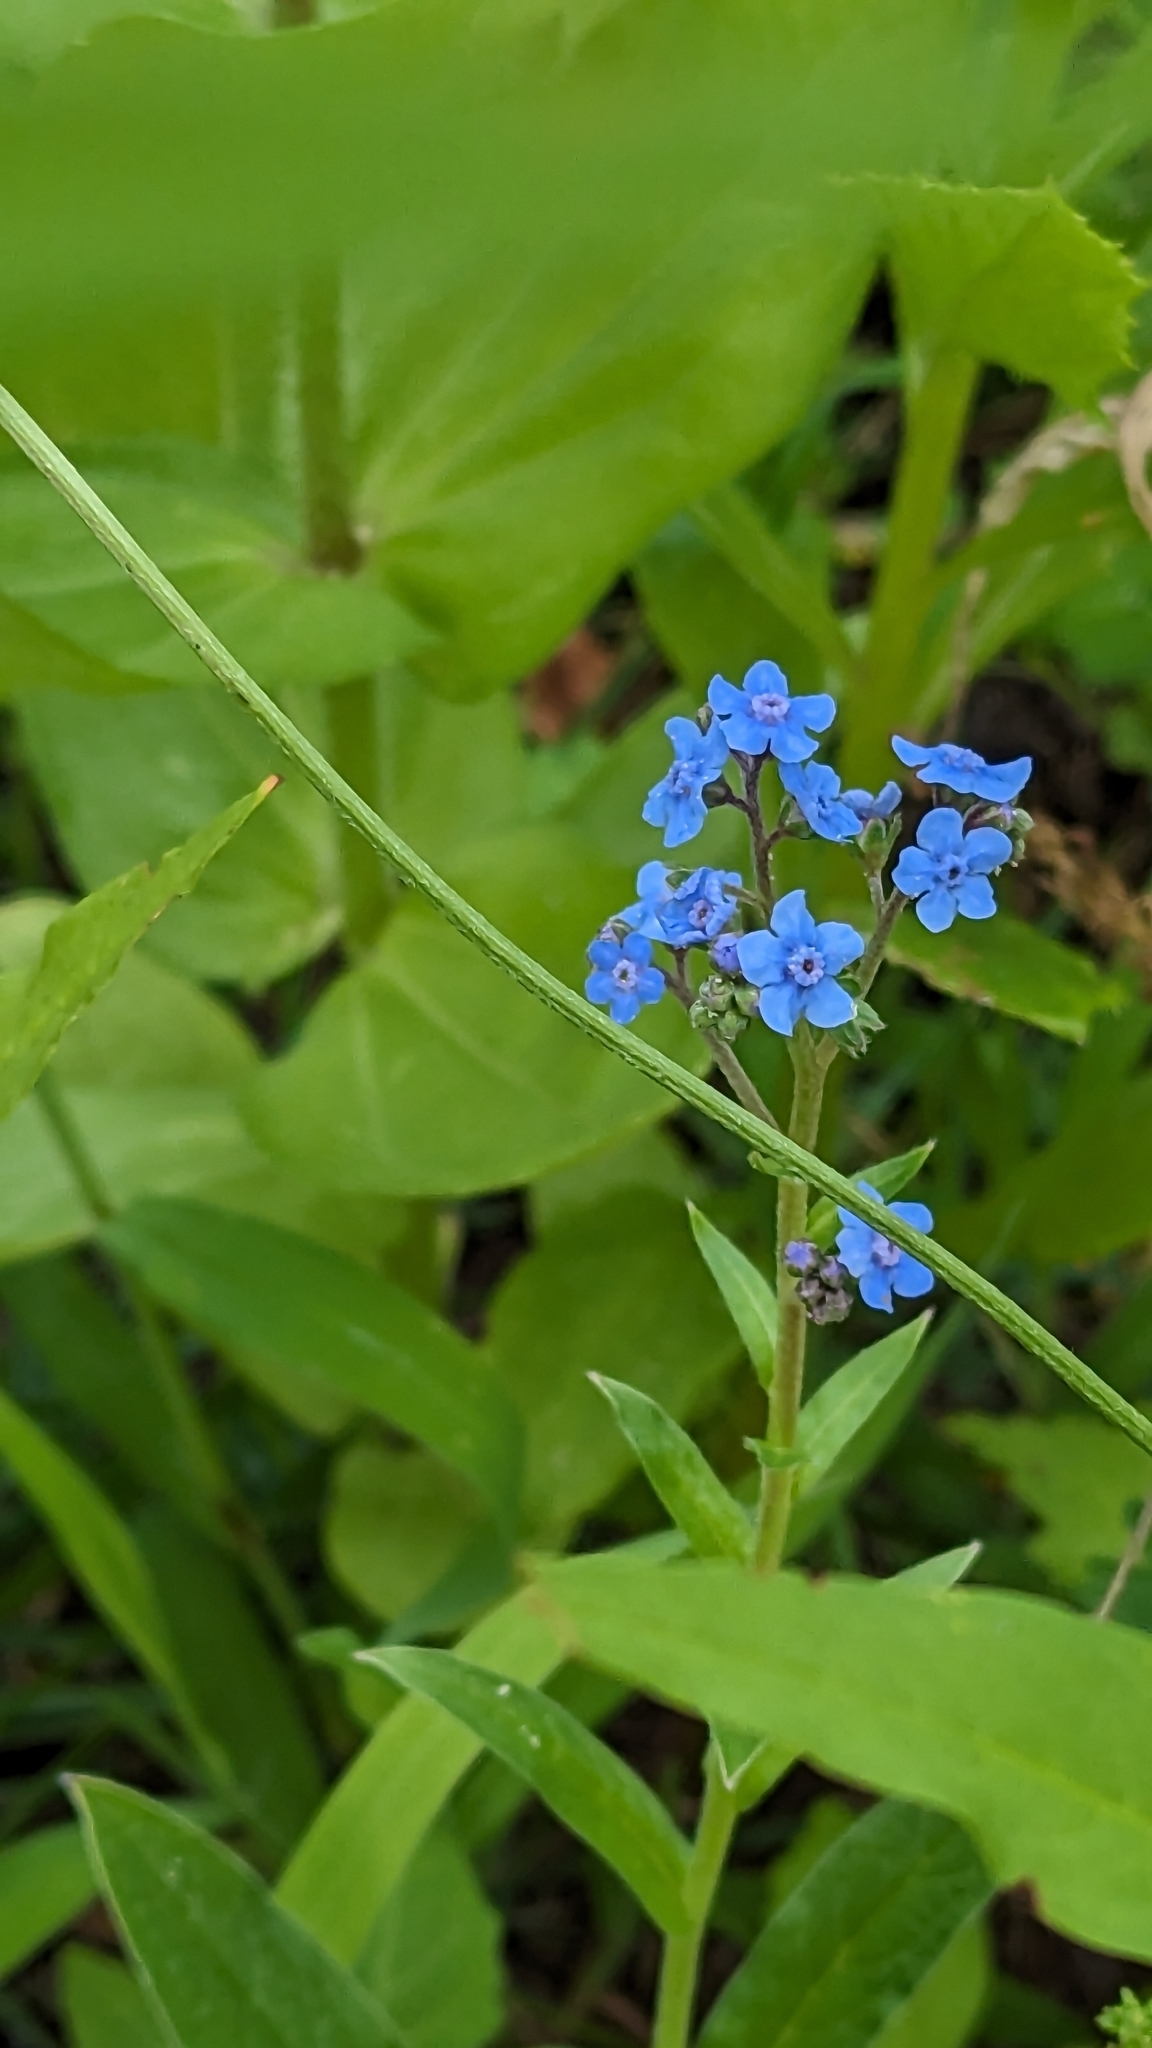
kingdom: Plantae
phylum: Tracheophyta
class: Magnoliopsida
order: Boraginales
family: Boraginaceae
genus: Cynoglossum
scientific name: Cynoglossum amabile
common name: Chinese hound's tongue
